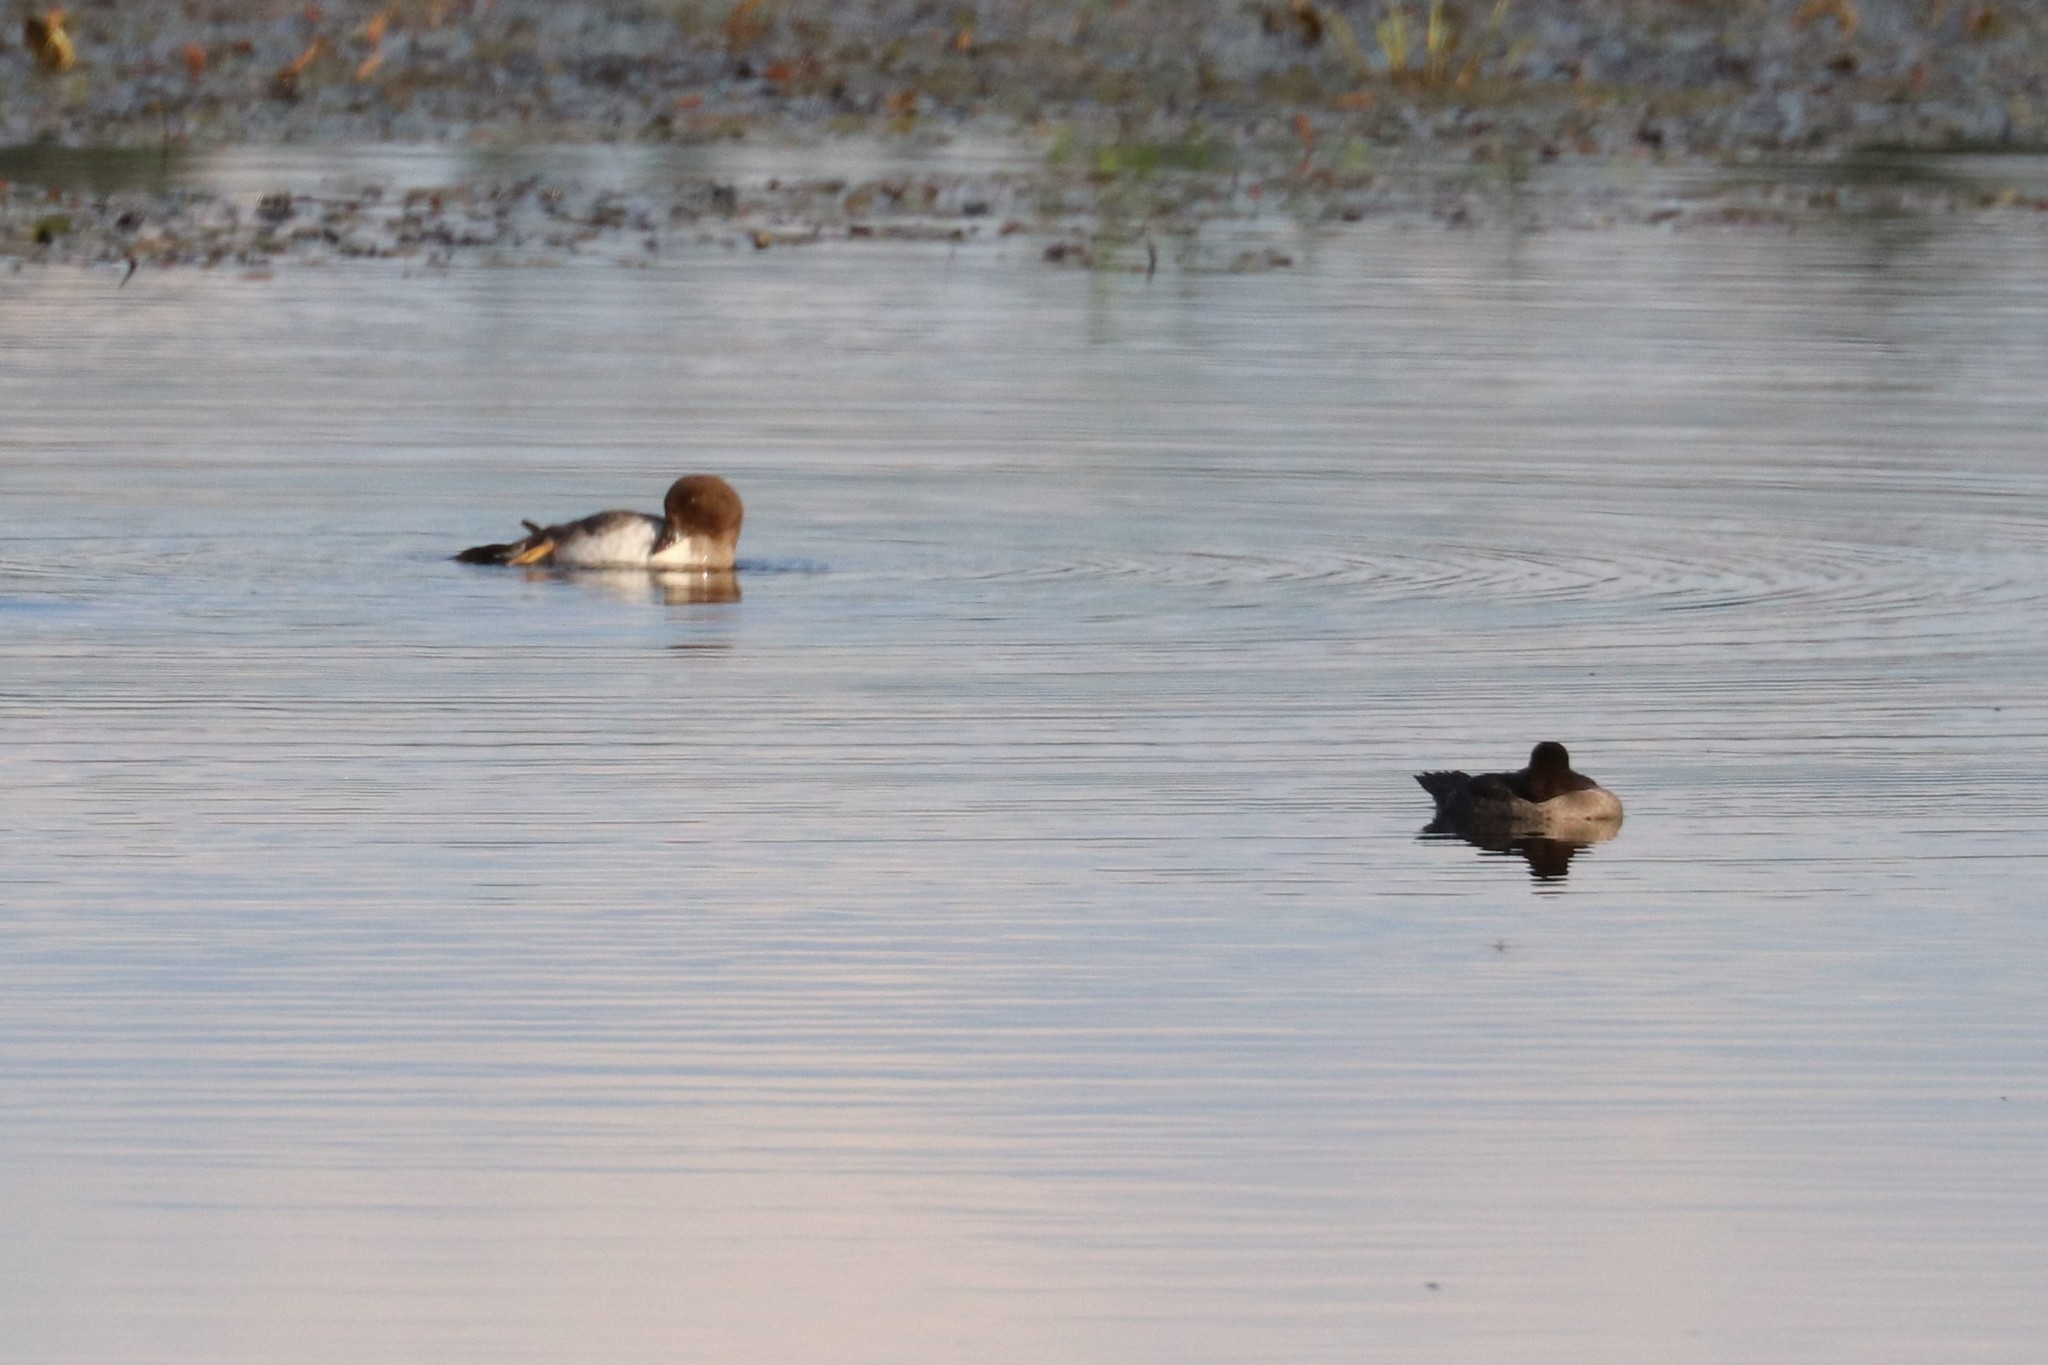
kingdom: Animalia
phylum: Chordata
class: Aves
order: Anseriformes
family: Anatidae
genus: Bucephala
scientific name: Bucephala clangula
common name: Common goldeneye
